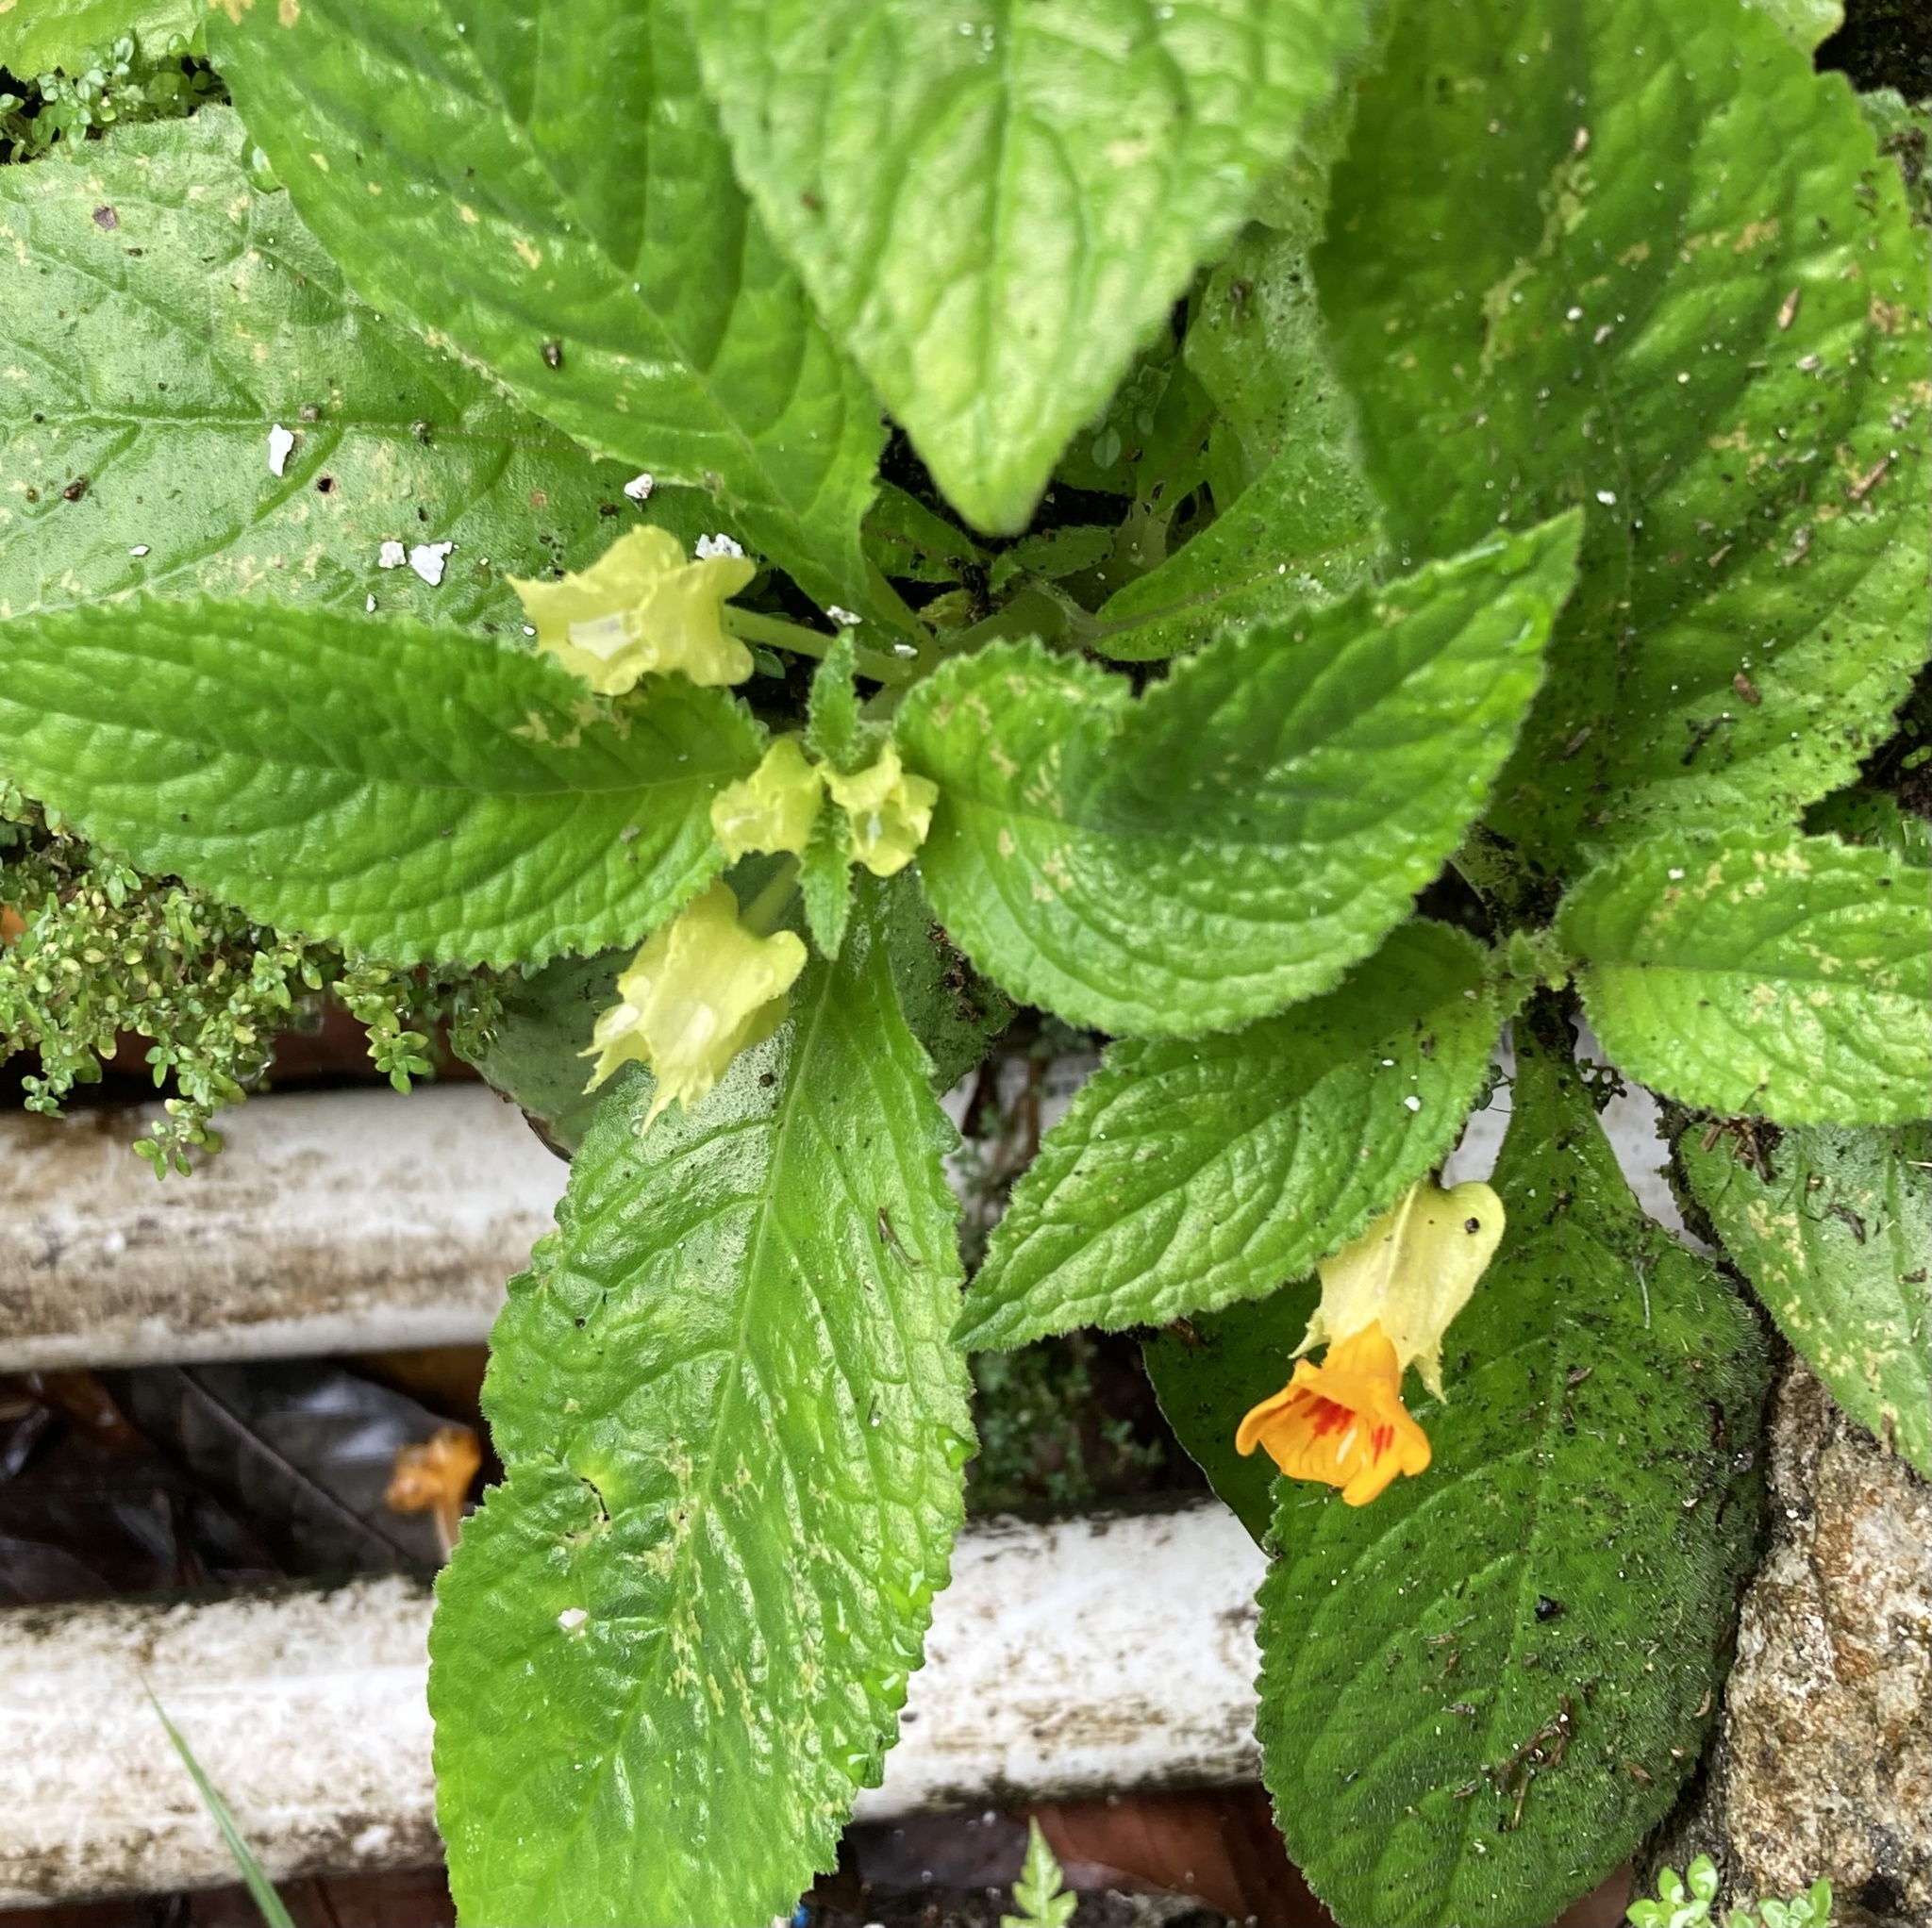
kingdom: Plantae
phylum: Tracheophyta
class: Magnoliopsida
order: Lamiales
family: Gesneriaceae
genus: Chrysothemis
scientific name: Chrysothemis friedrichsthaliana
